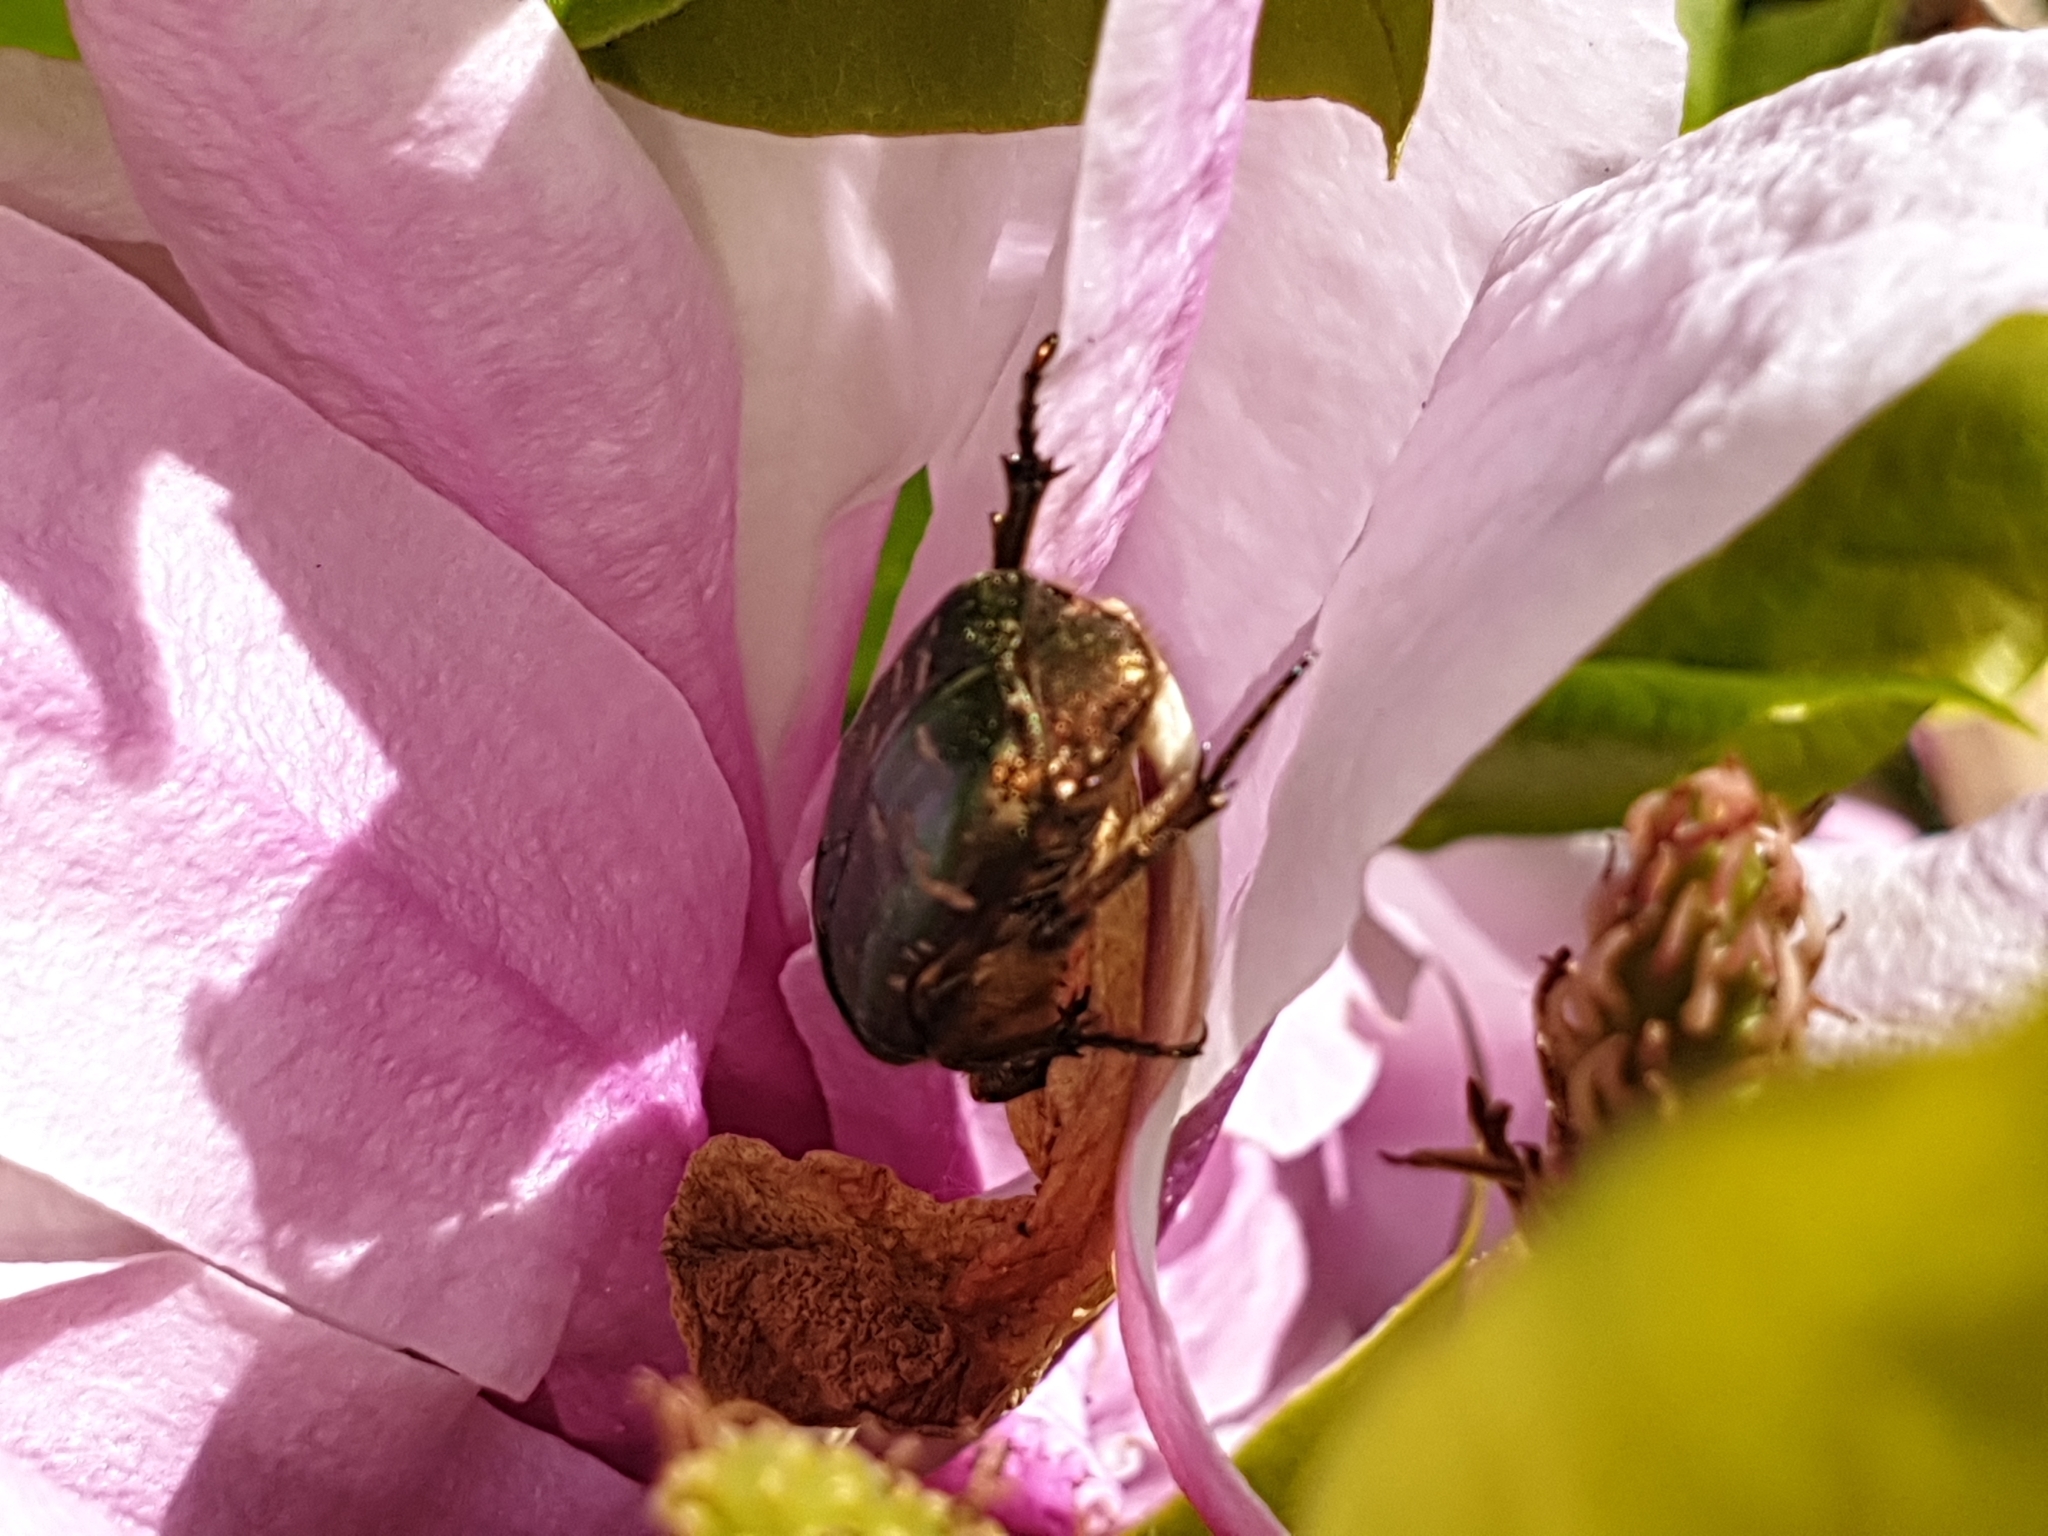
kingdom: Animalia
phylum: Arthropoda
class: Insecta
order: Coleoptera
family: Scarabaeidae
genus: Cetonia
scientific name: Cetonia aurata
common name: Rose chafer
